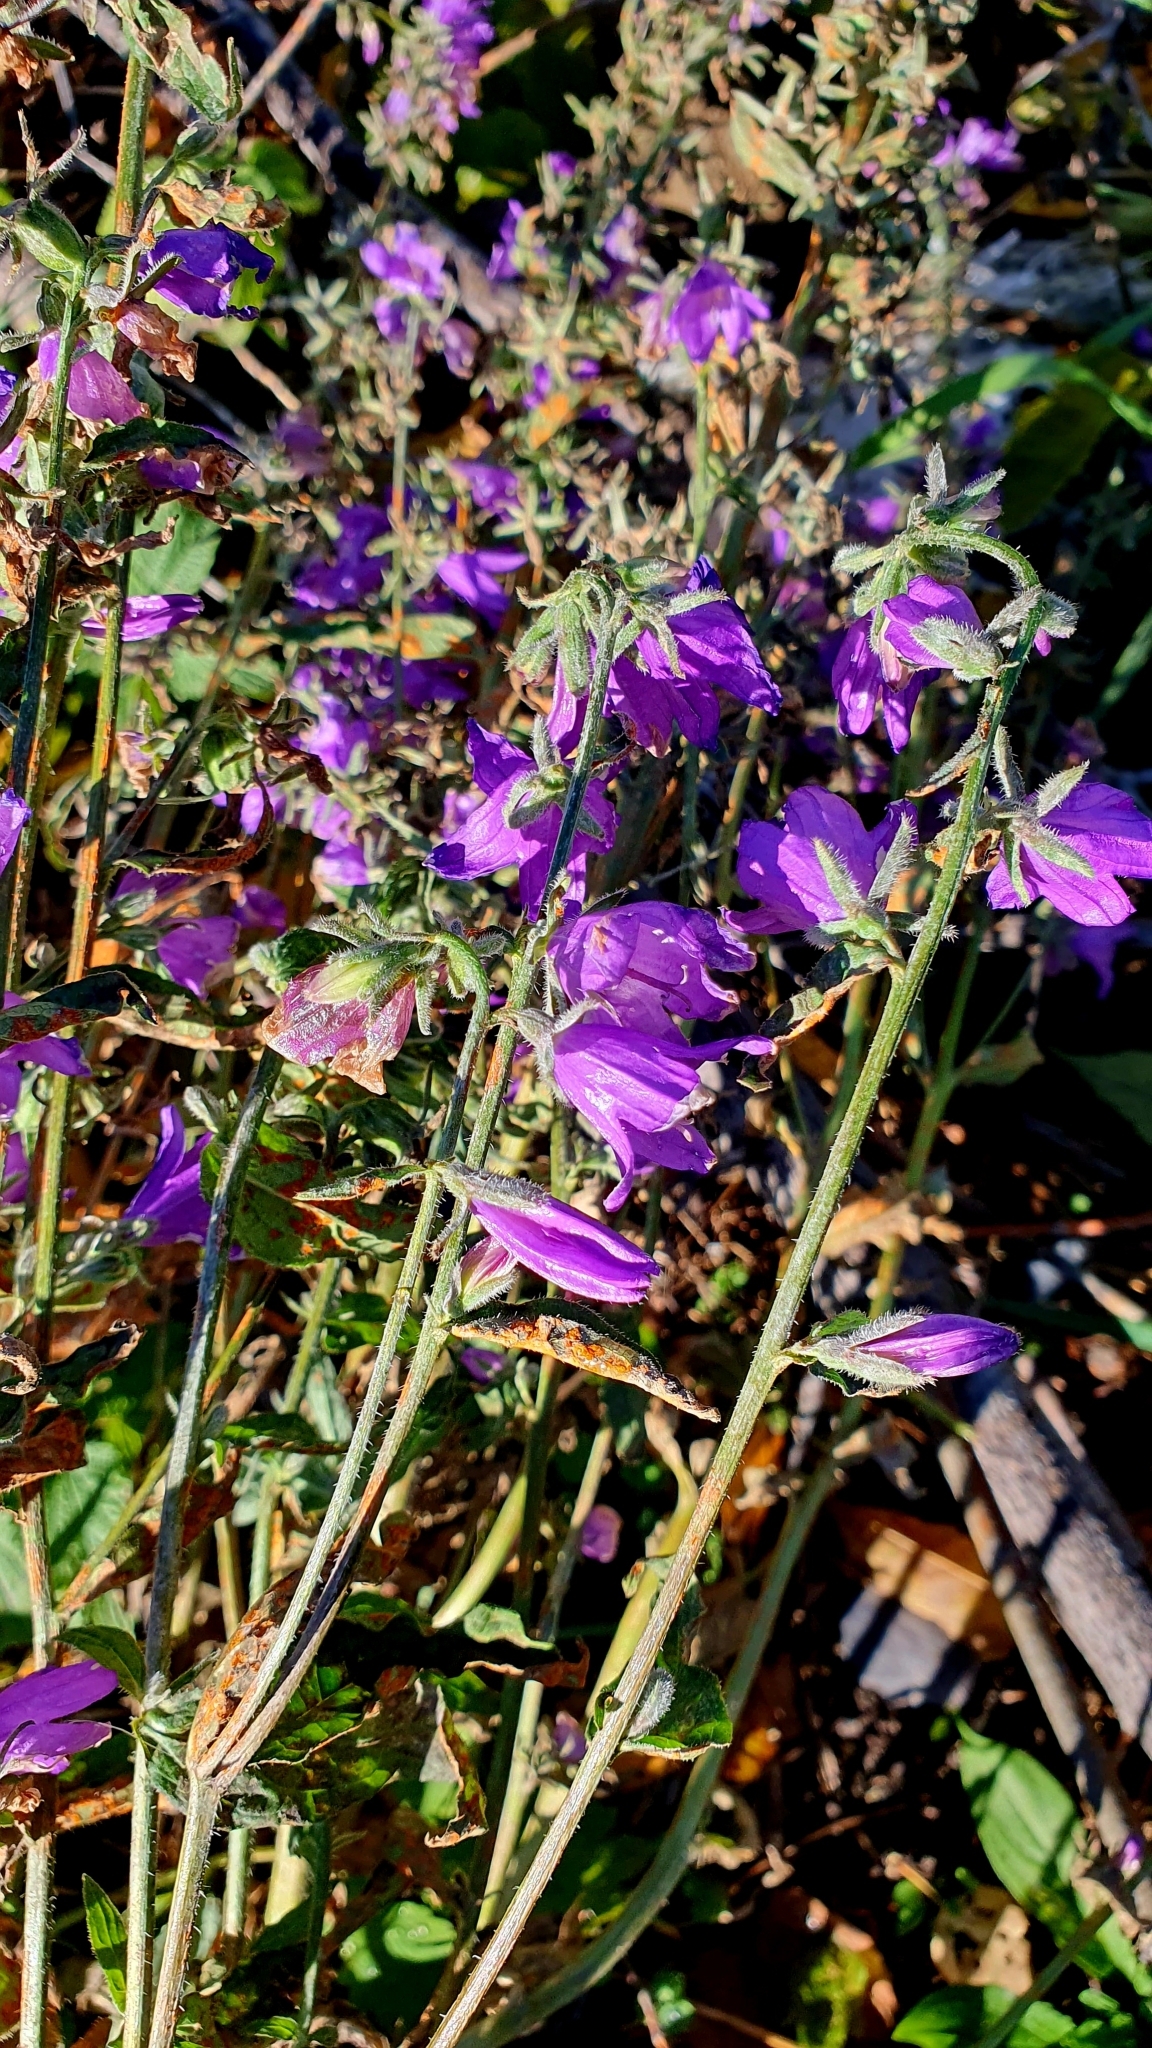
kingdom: Plantae
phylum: Tracheophyta
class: Magnoliopsida
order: Asterales
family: Campanulaceae
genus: Campanula
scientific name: Campanula rapunculoides
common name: Creeping bellflower
